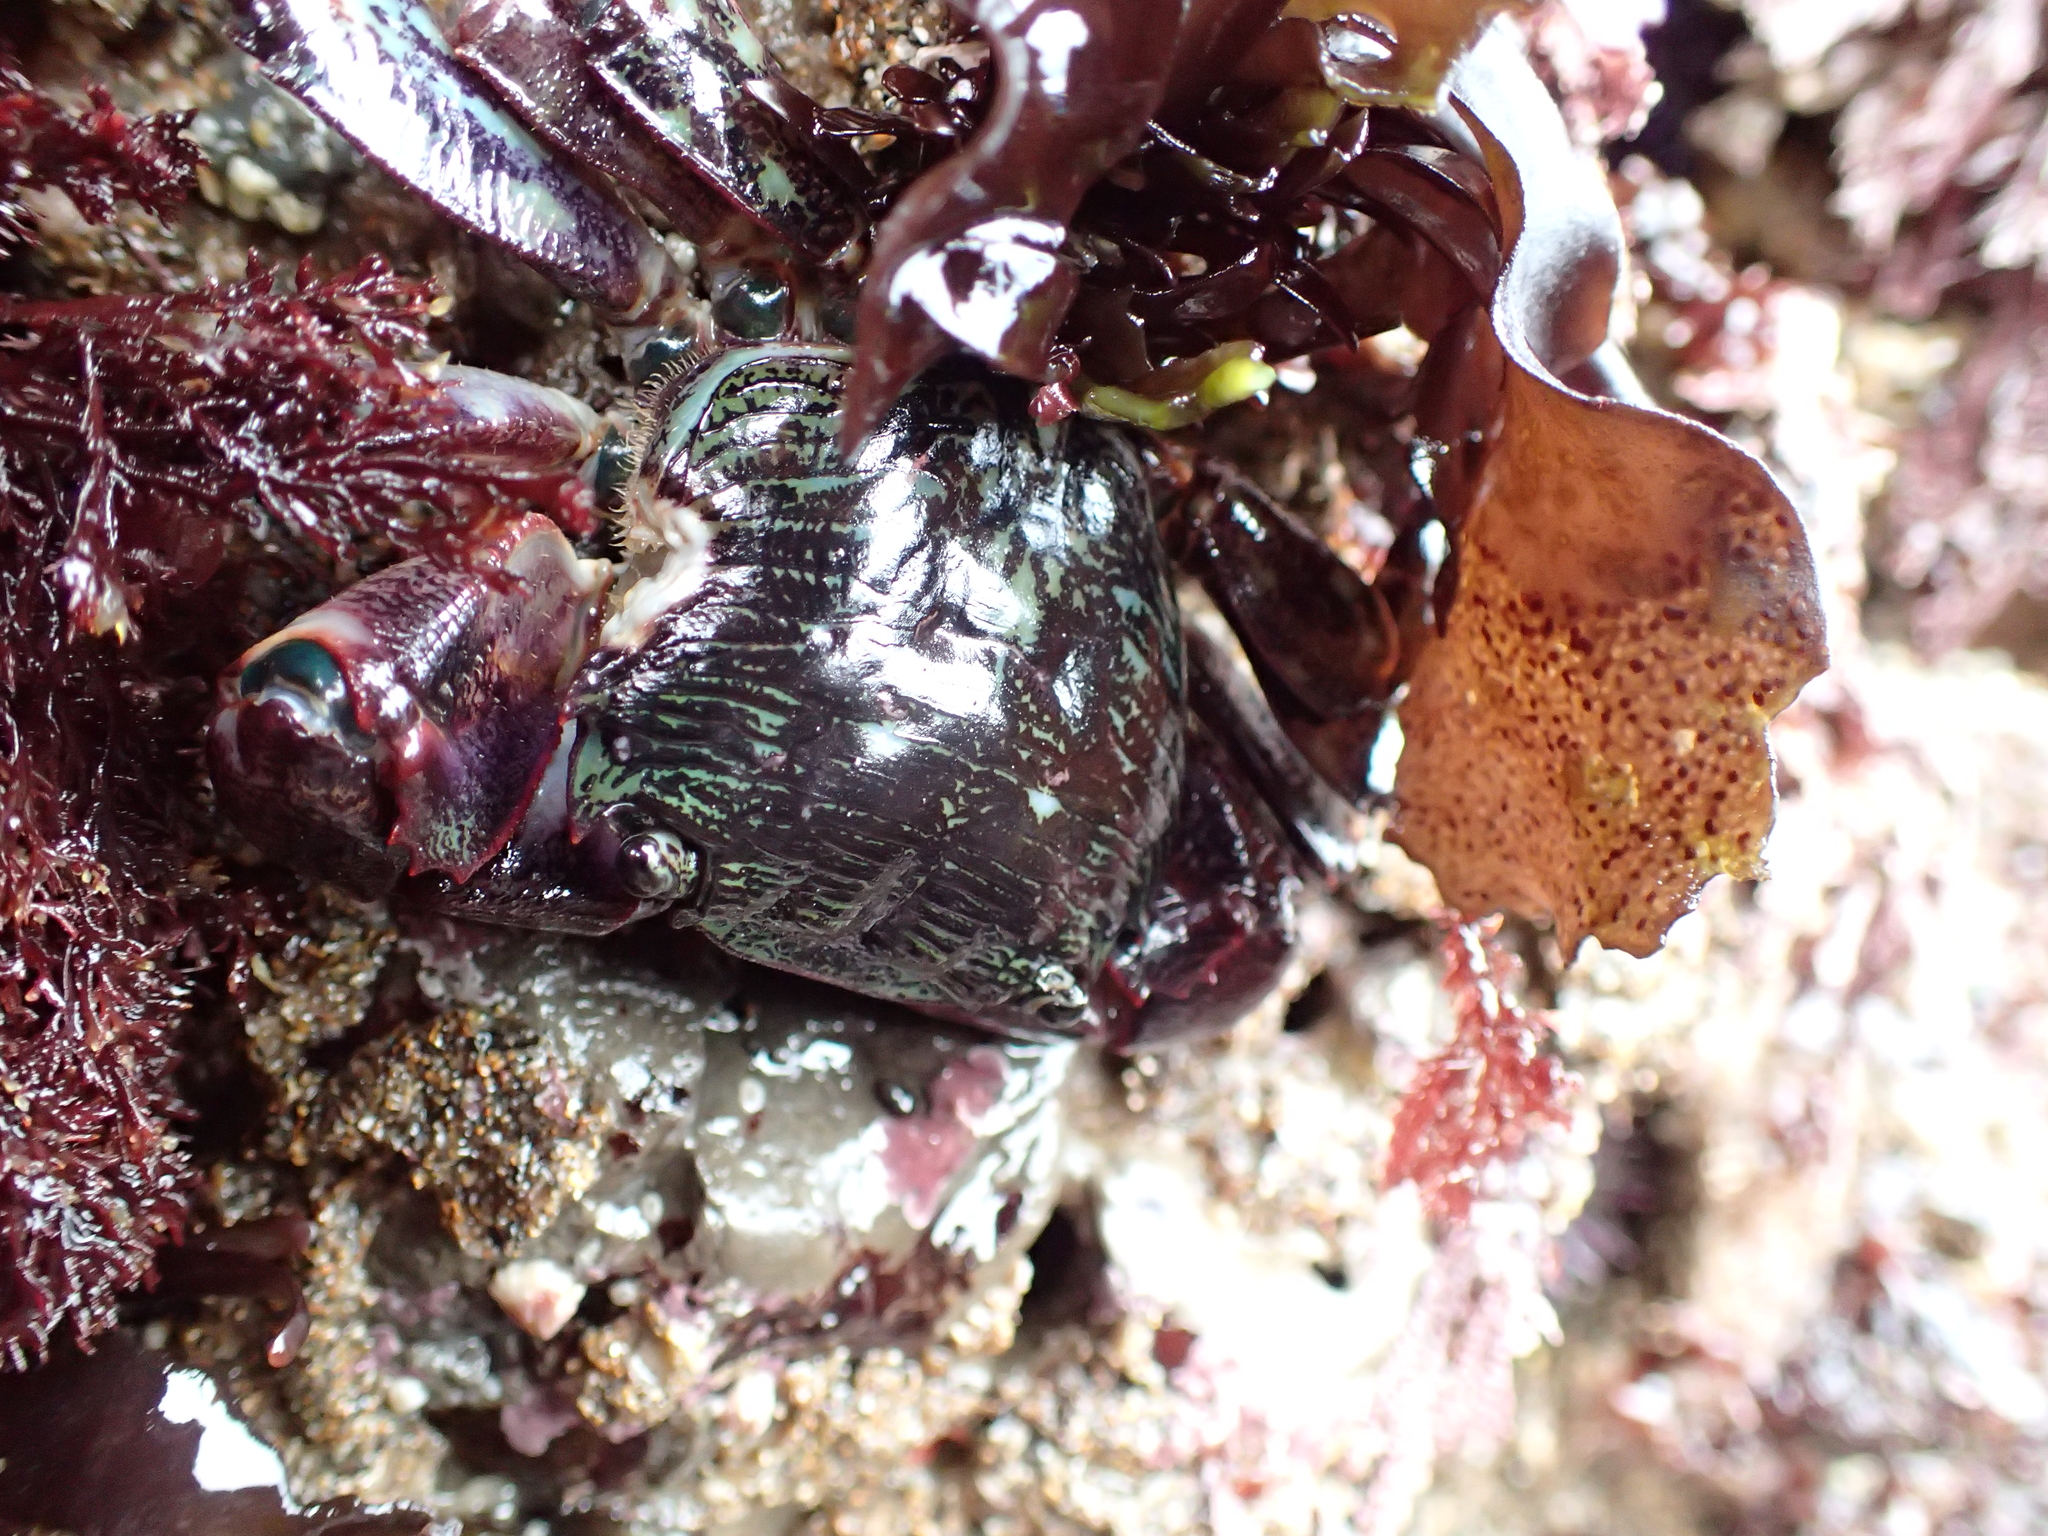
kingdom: Animalia
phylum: Arthropoda
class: Malacostraca
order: Decapoda
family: Grapsidae
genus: Pachygrapsus
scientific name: Pachygrapsus crassipes
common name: Striped shore crab
